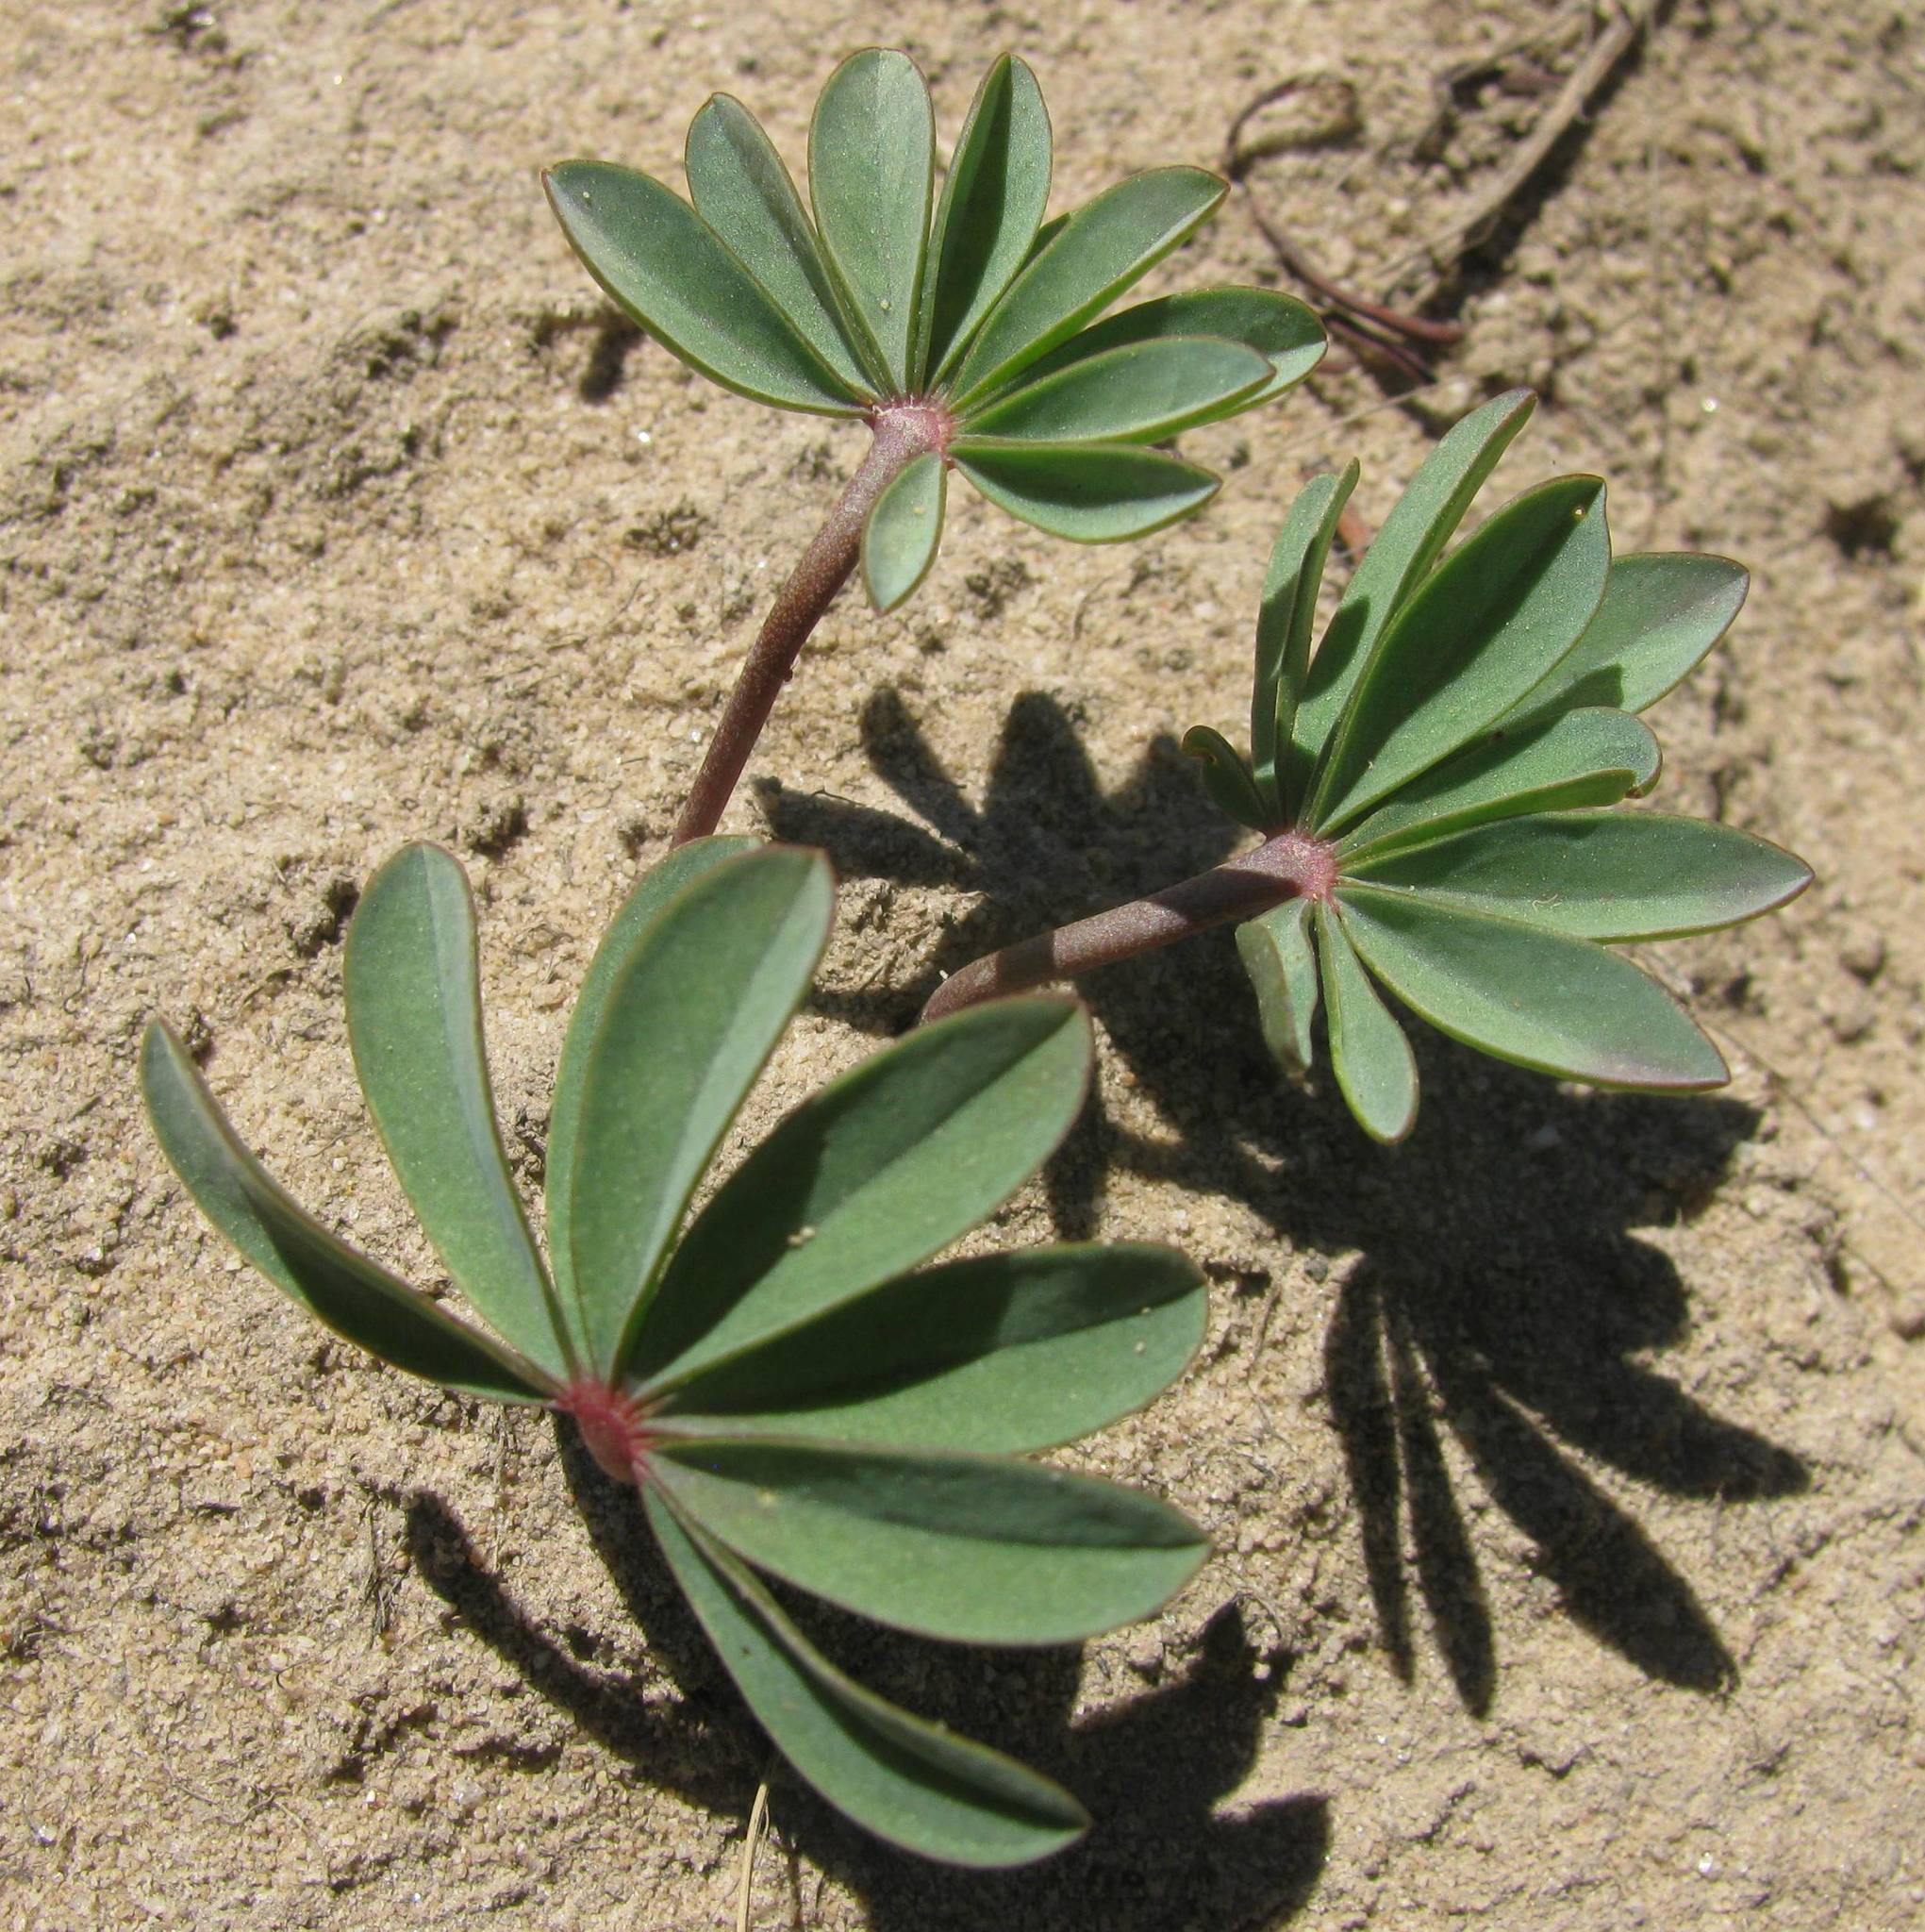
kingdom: Plantae
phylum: Tracheophyta
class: Magnoliopsida
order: Oxalidales
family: Oxalidaceae
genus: Oxalis
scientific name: Oxalis flava
